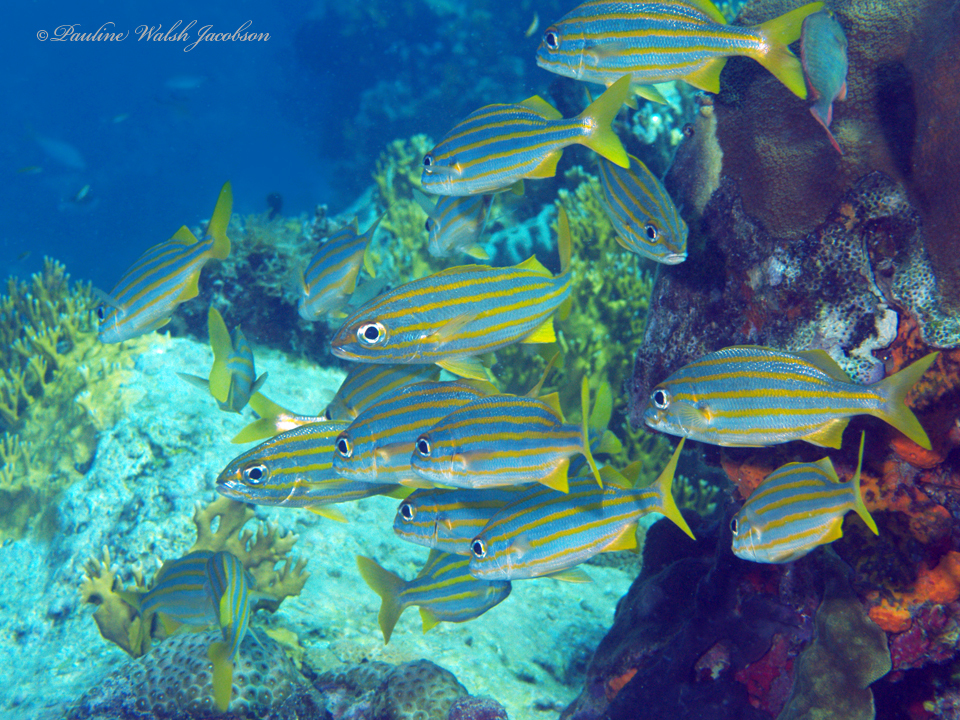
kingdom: Animalia
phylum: Chordata
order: Perciformes
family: Haemulidae
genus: Haemulon
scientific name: Haemulon chrysargyreum
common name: Smallmouth grunt
